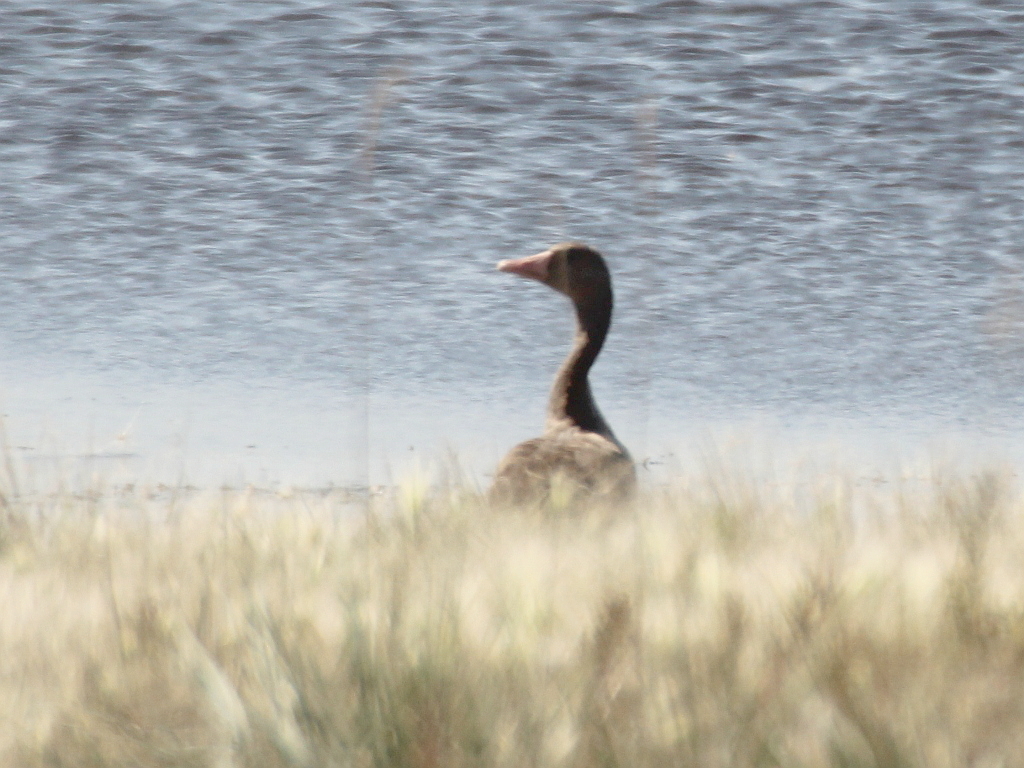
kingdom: Animalia
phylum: Chordata
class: Aves
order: Anseriformes
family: Anatidae
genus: Anser
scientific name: Anser anser
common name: Greylag goose
